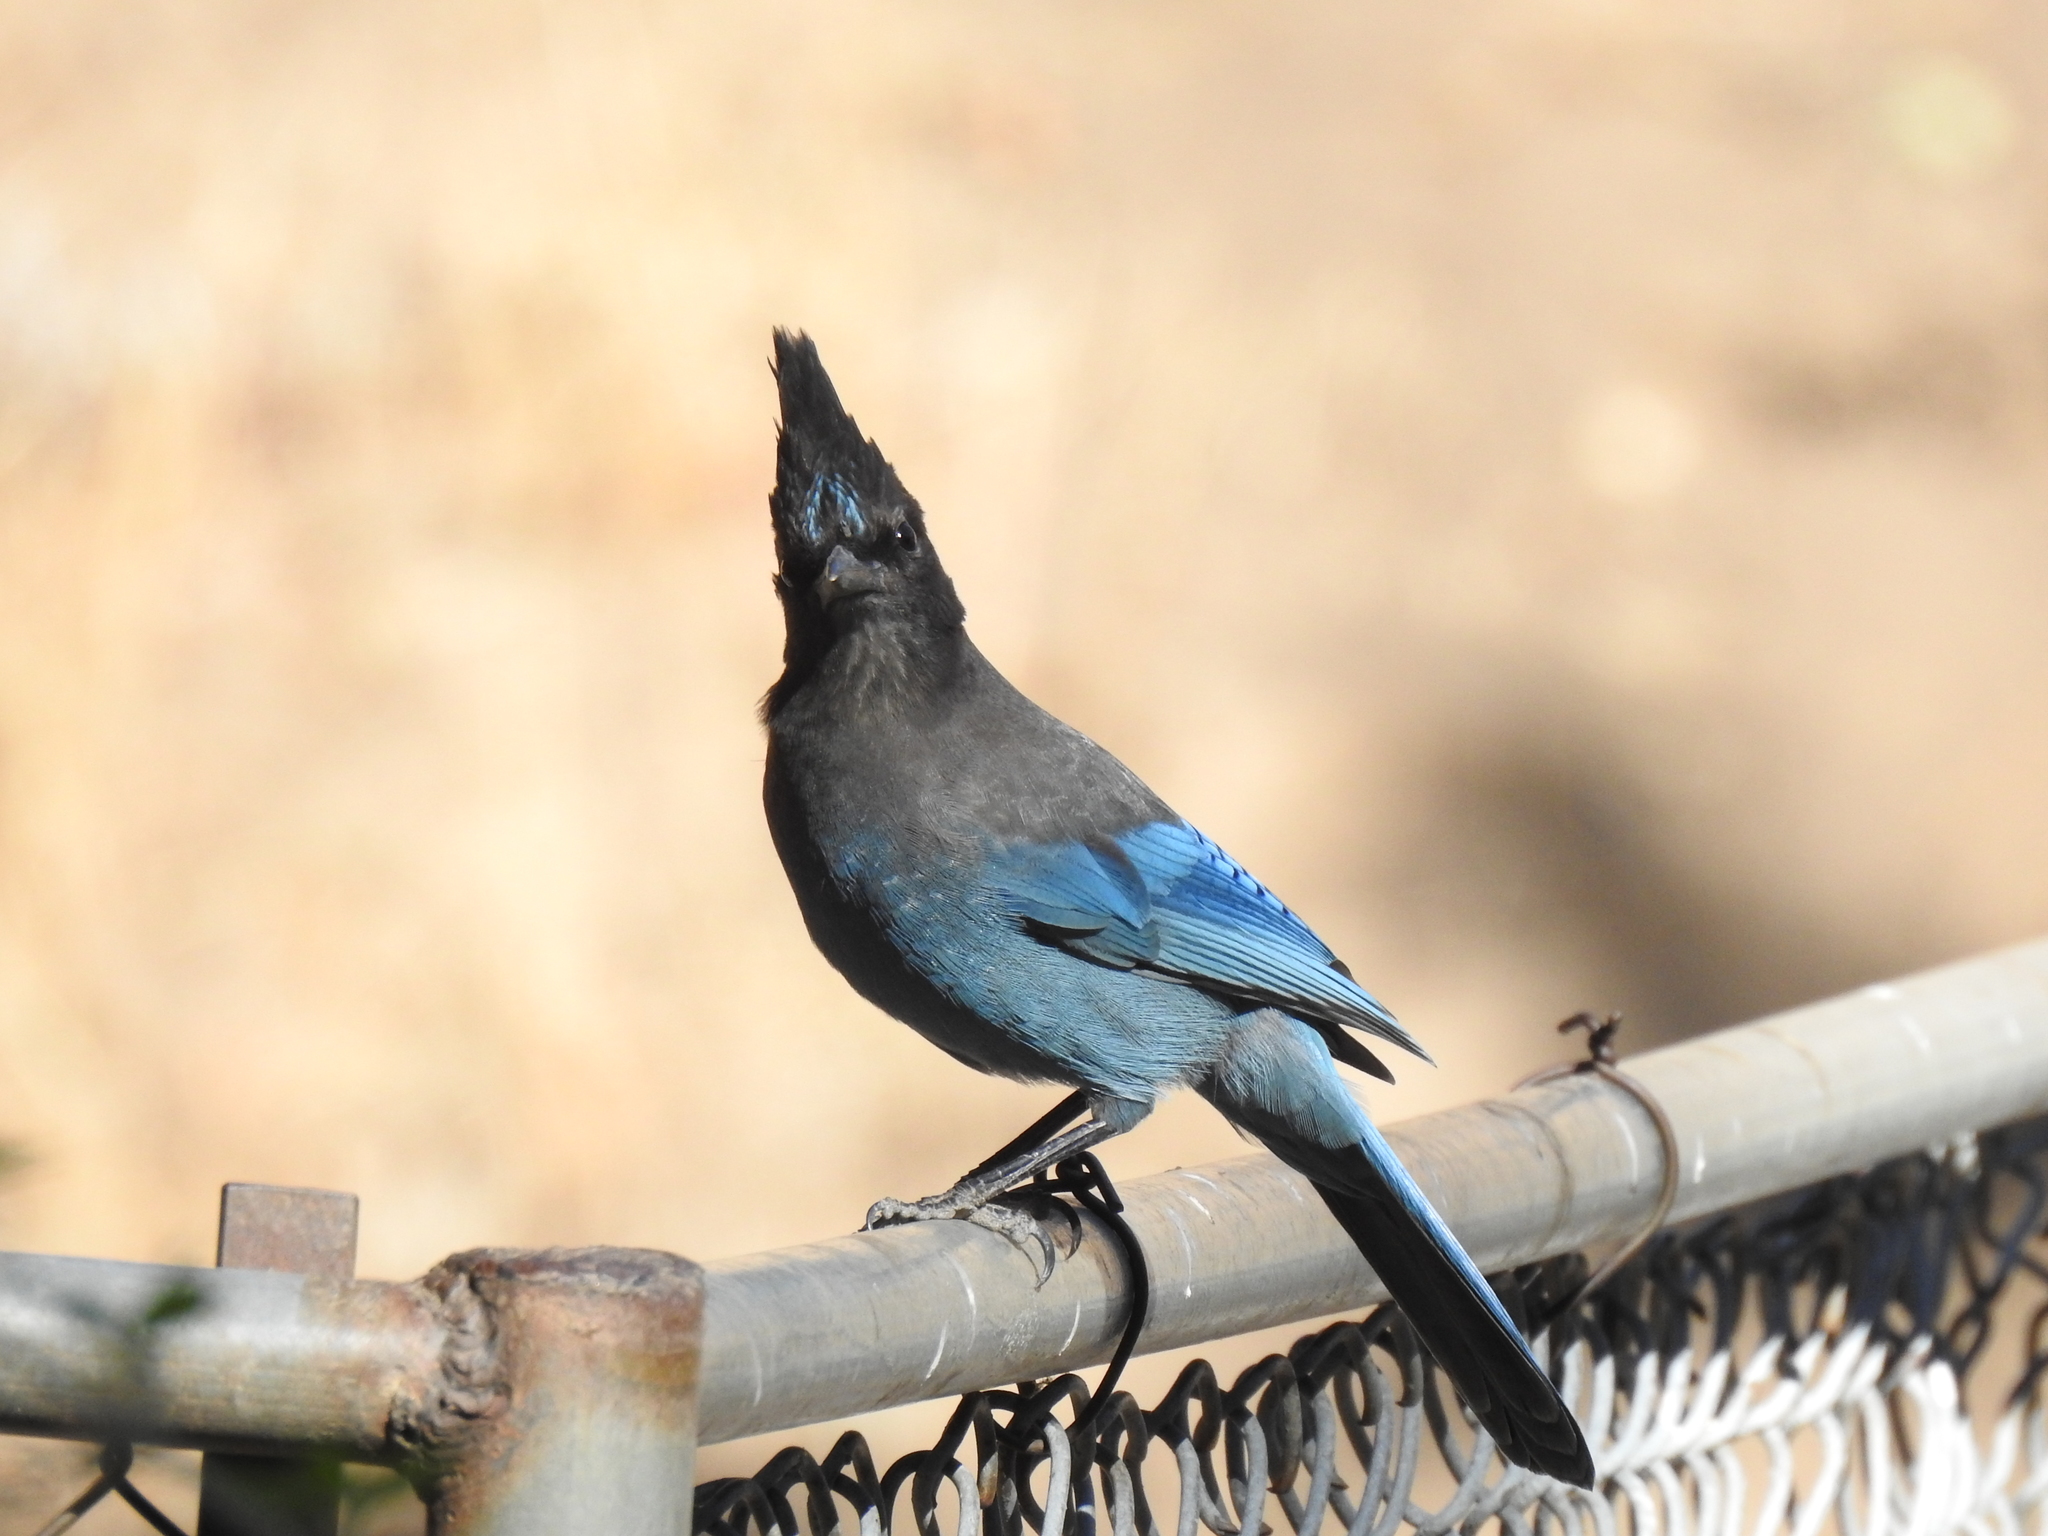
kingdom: Animalia
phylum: Chordata
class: Aves
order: Passeriformes
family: Corvidae
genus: Cyanocitta
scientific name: Cyanocitta stelleri
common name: Steller's jay
